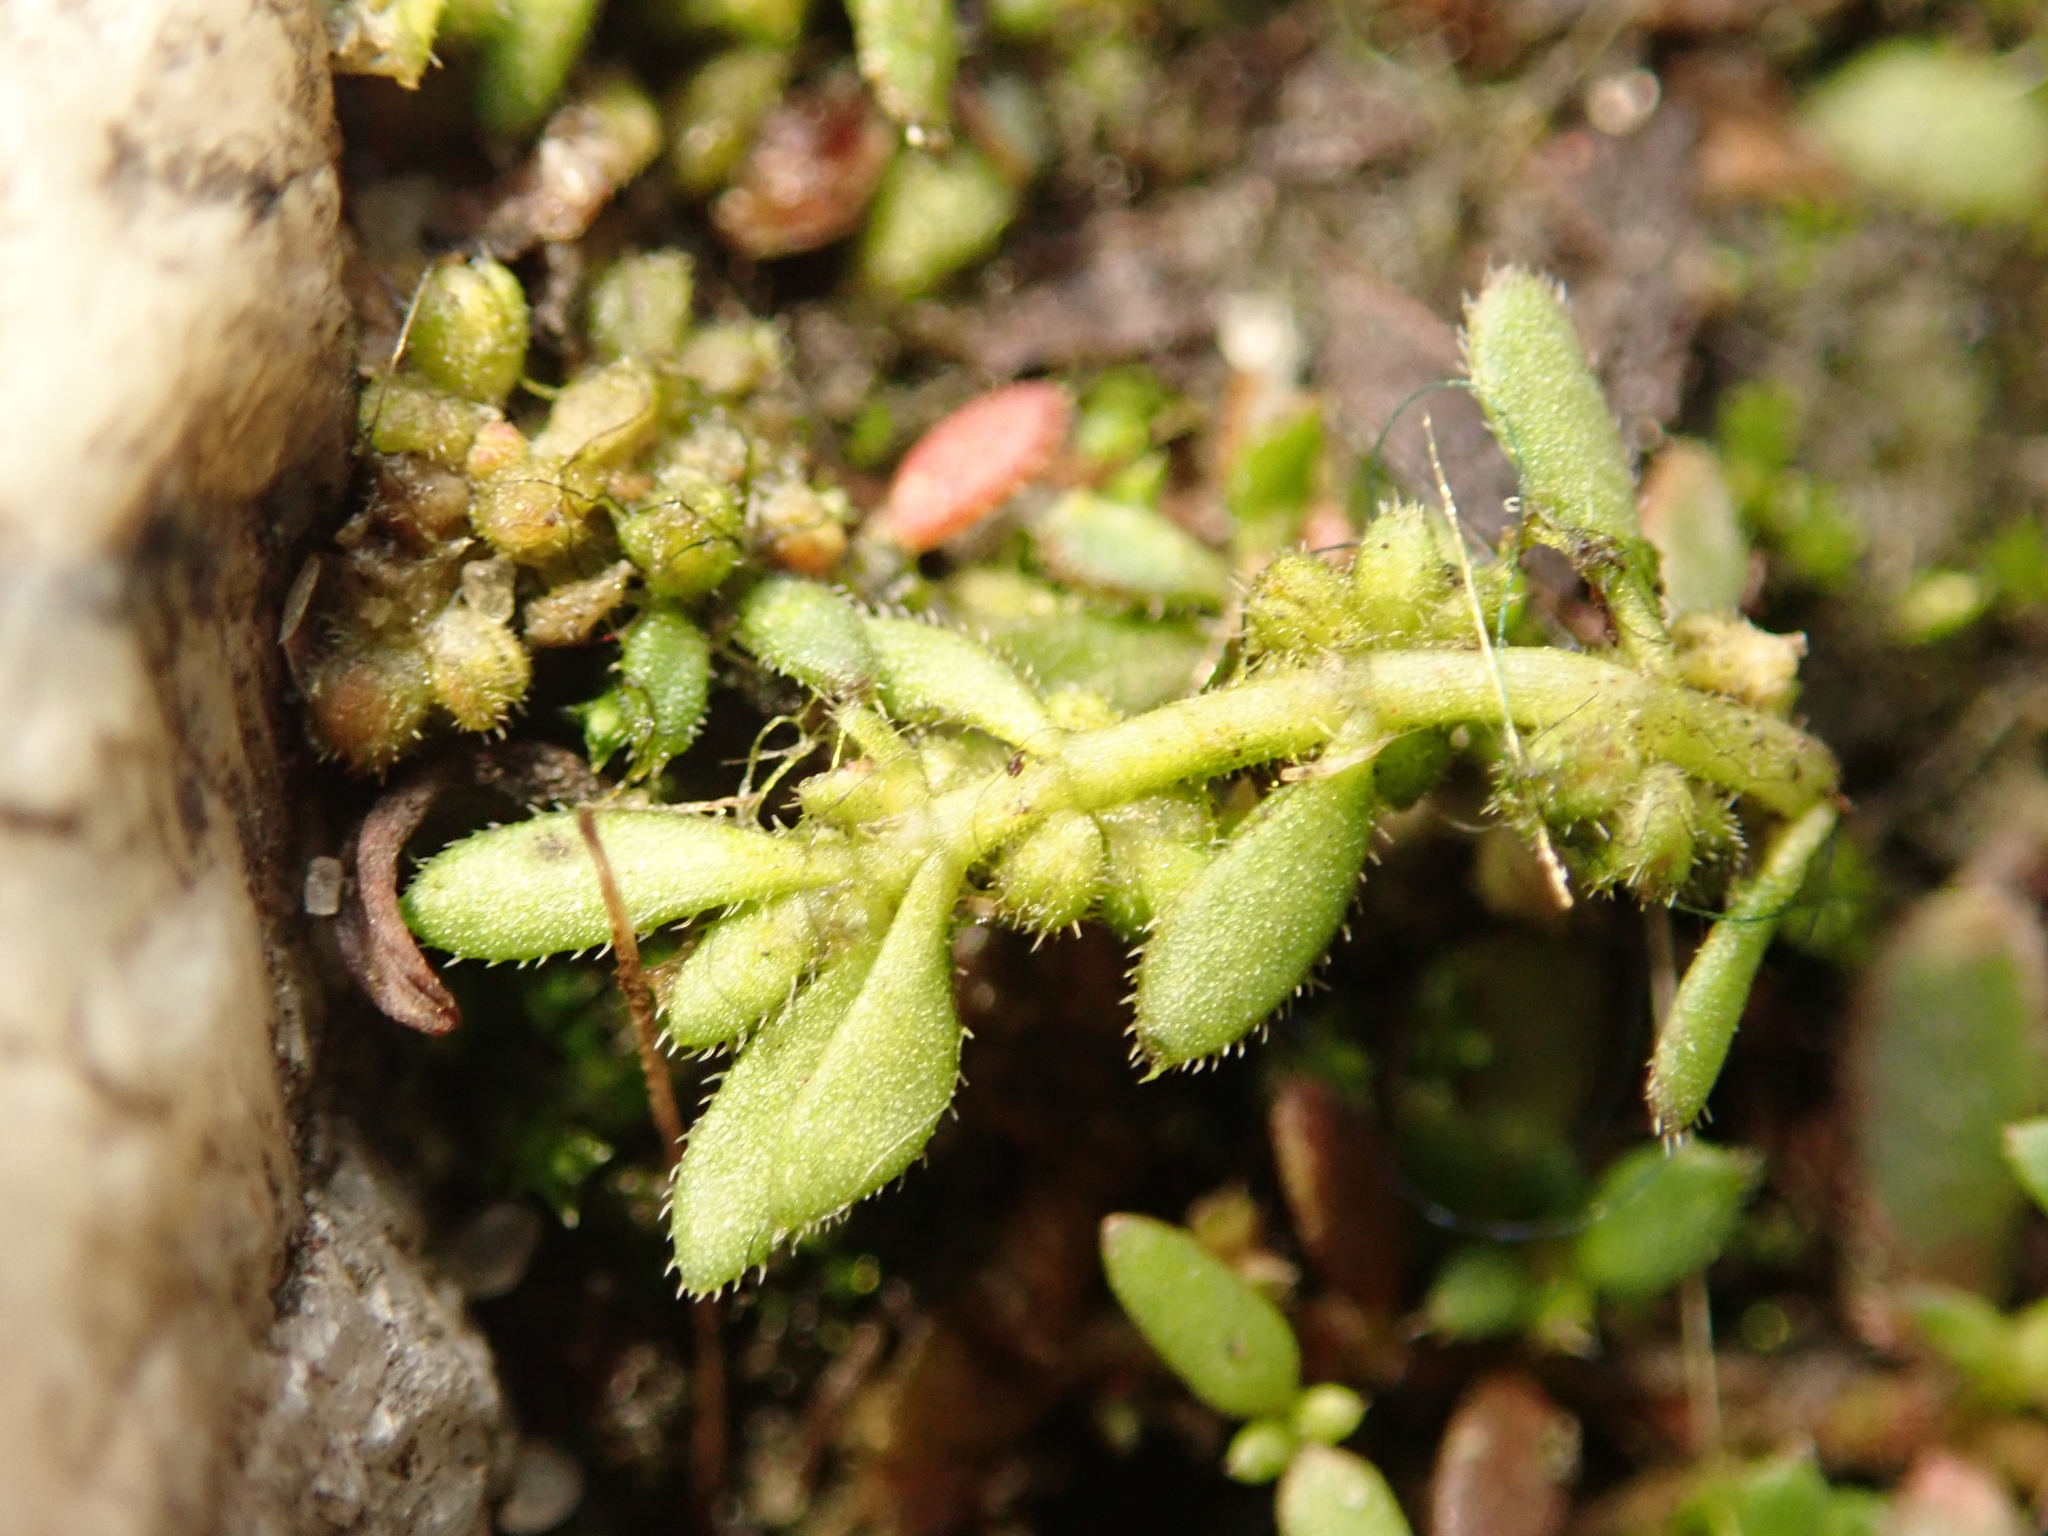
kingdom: Plantae
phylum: Tracheophyta
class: Magnoliopsida
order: Caryophyllales
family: Caryophyllaceae
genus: Herniaria
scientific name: Herniaria hirsuta
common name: Hairy rupturewort
